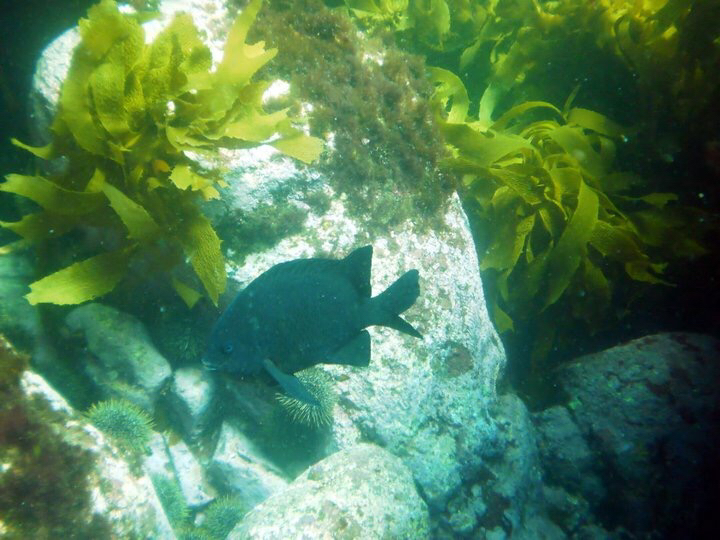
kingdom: Animalia
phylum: Chordata
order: Perciformes
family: Pomacentridae
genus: Parma
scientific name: Parma alboscapularis
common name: Black angelfish
